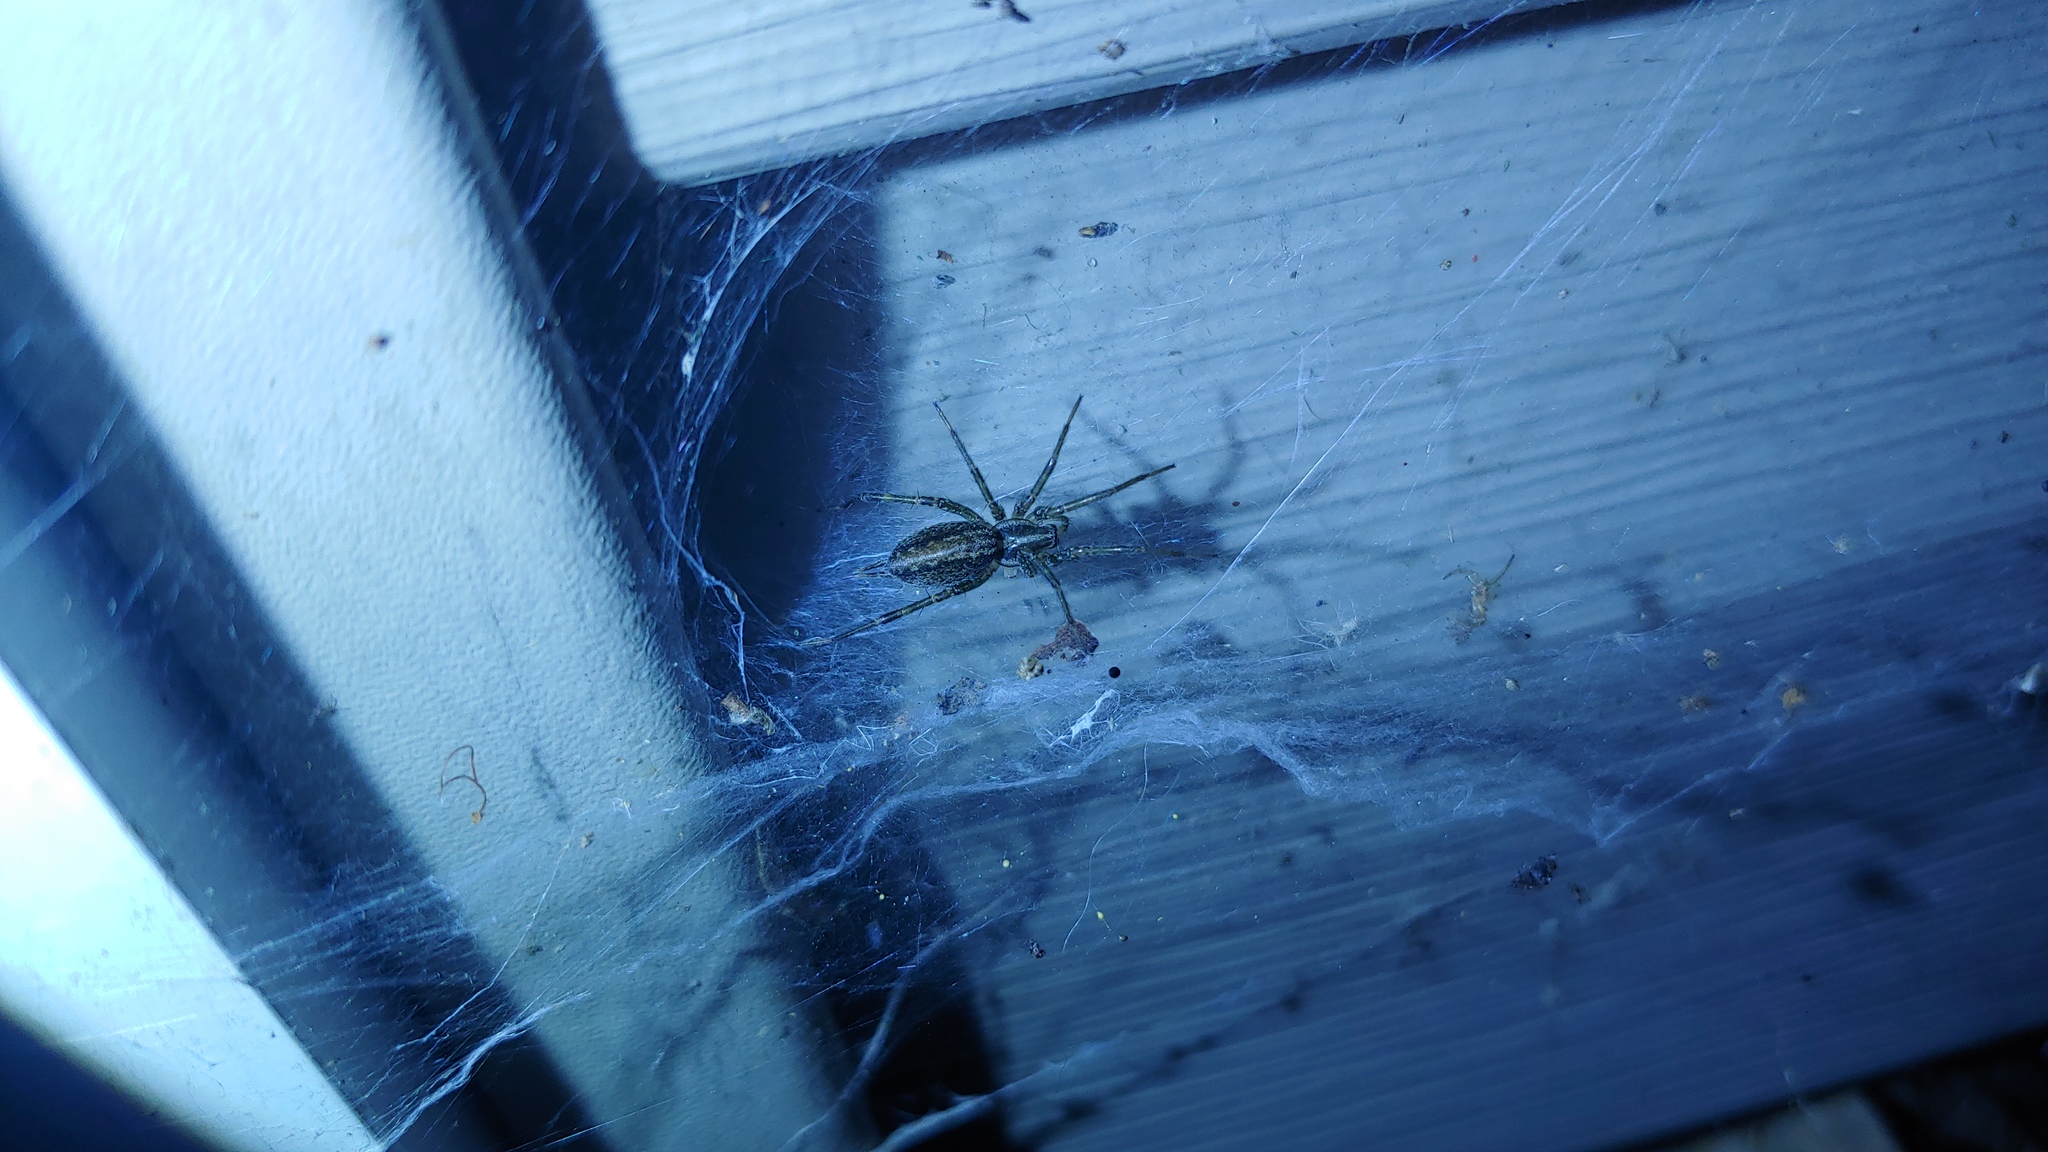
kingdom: Animalia
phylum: Arthropoda
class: Arachnida
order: Araneae
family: Agelenidae
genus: Agelenopsis
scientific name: Agelenopsis
